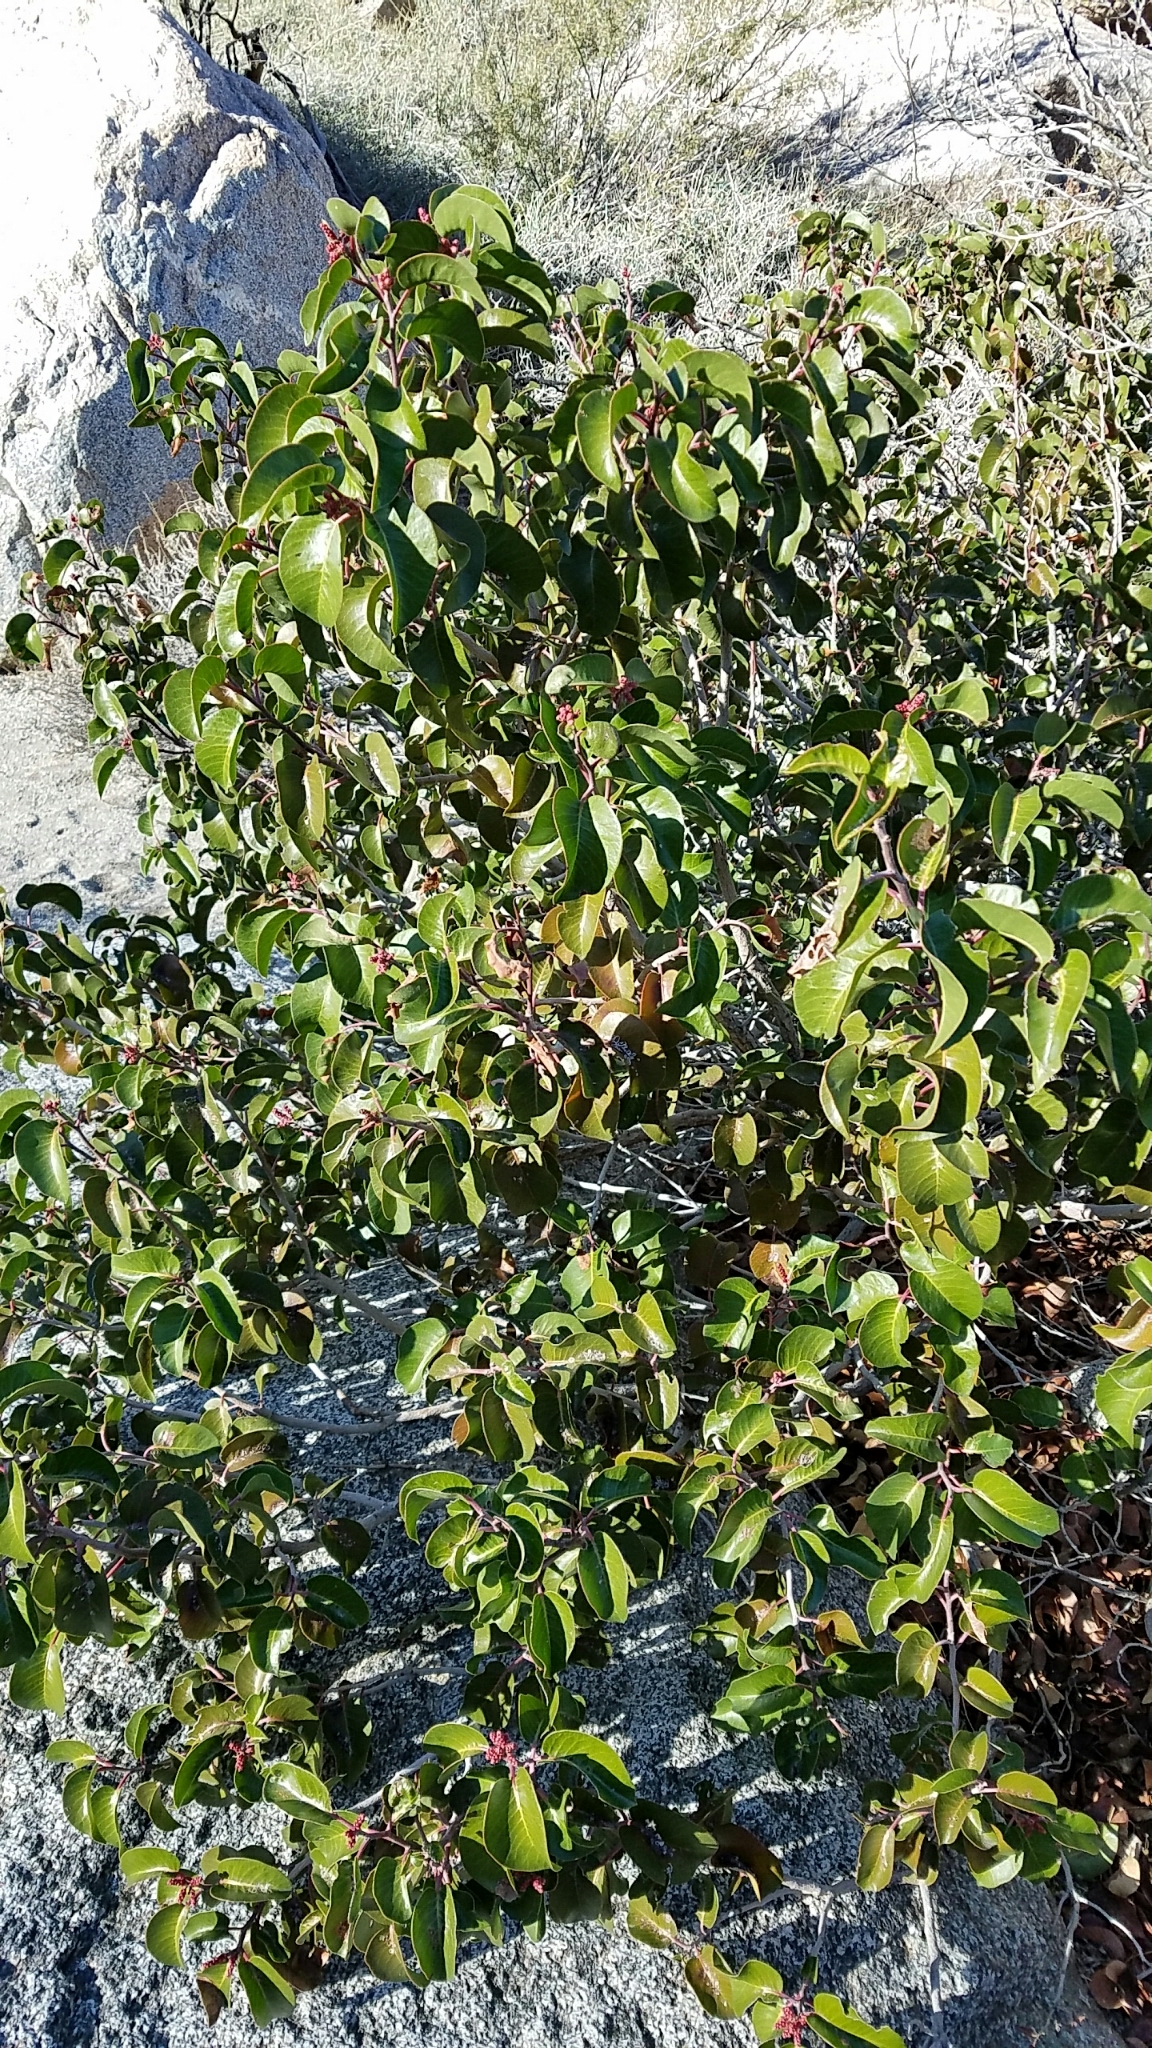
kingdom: Plantae
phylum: Tracheophyta
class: Magnoliopsida
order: Sapindales
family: Anacardiaceae
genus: Rhus
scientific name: Rhus ovata
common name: Sugar sumac
